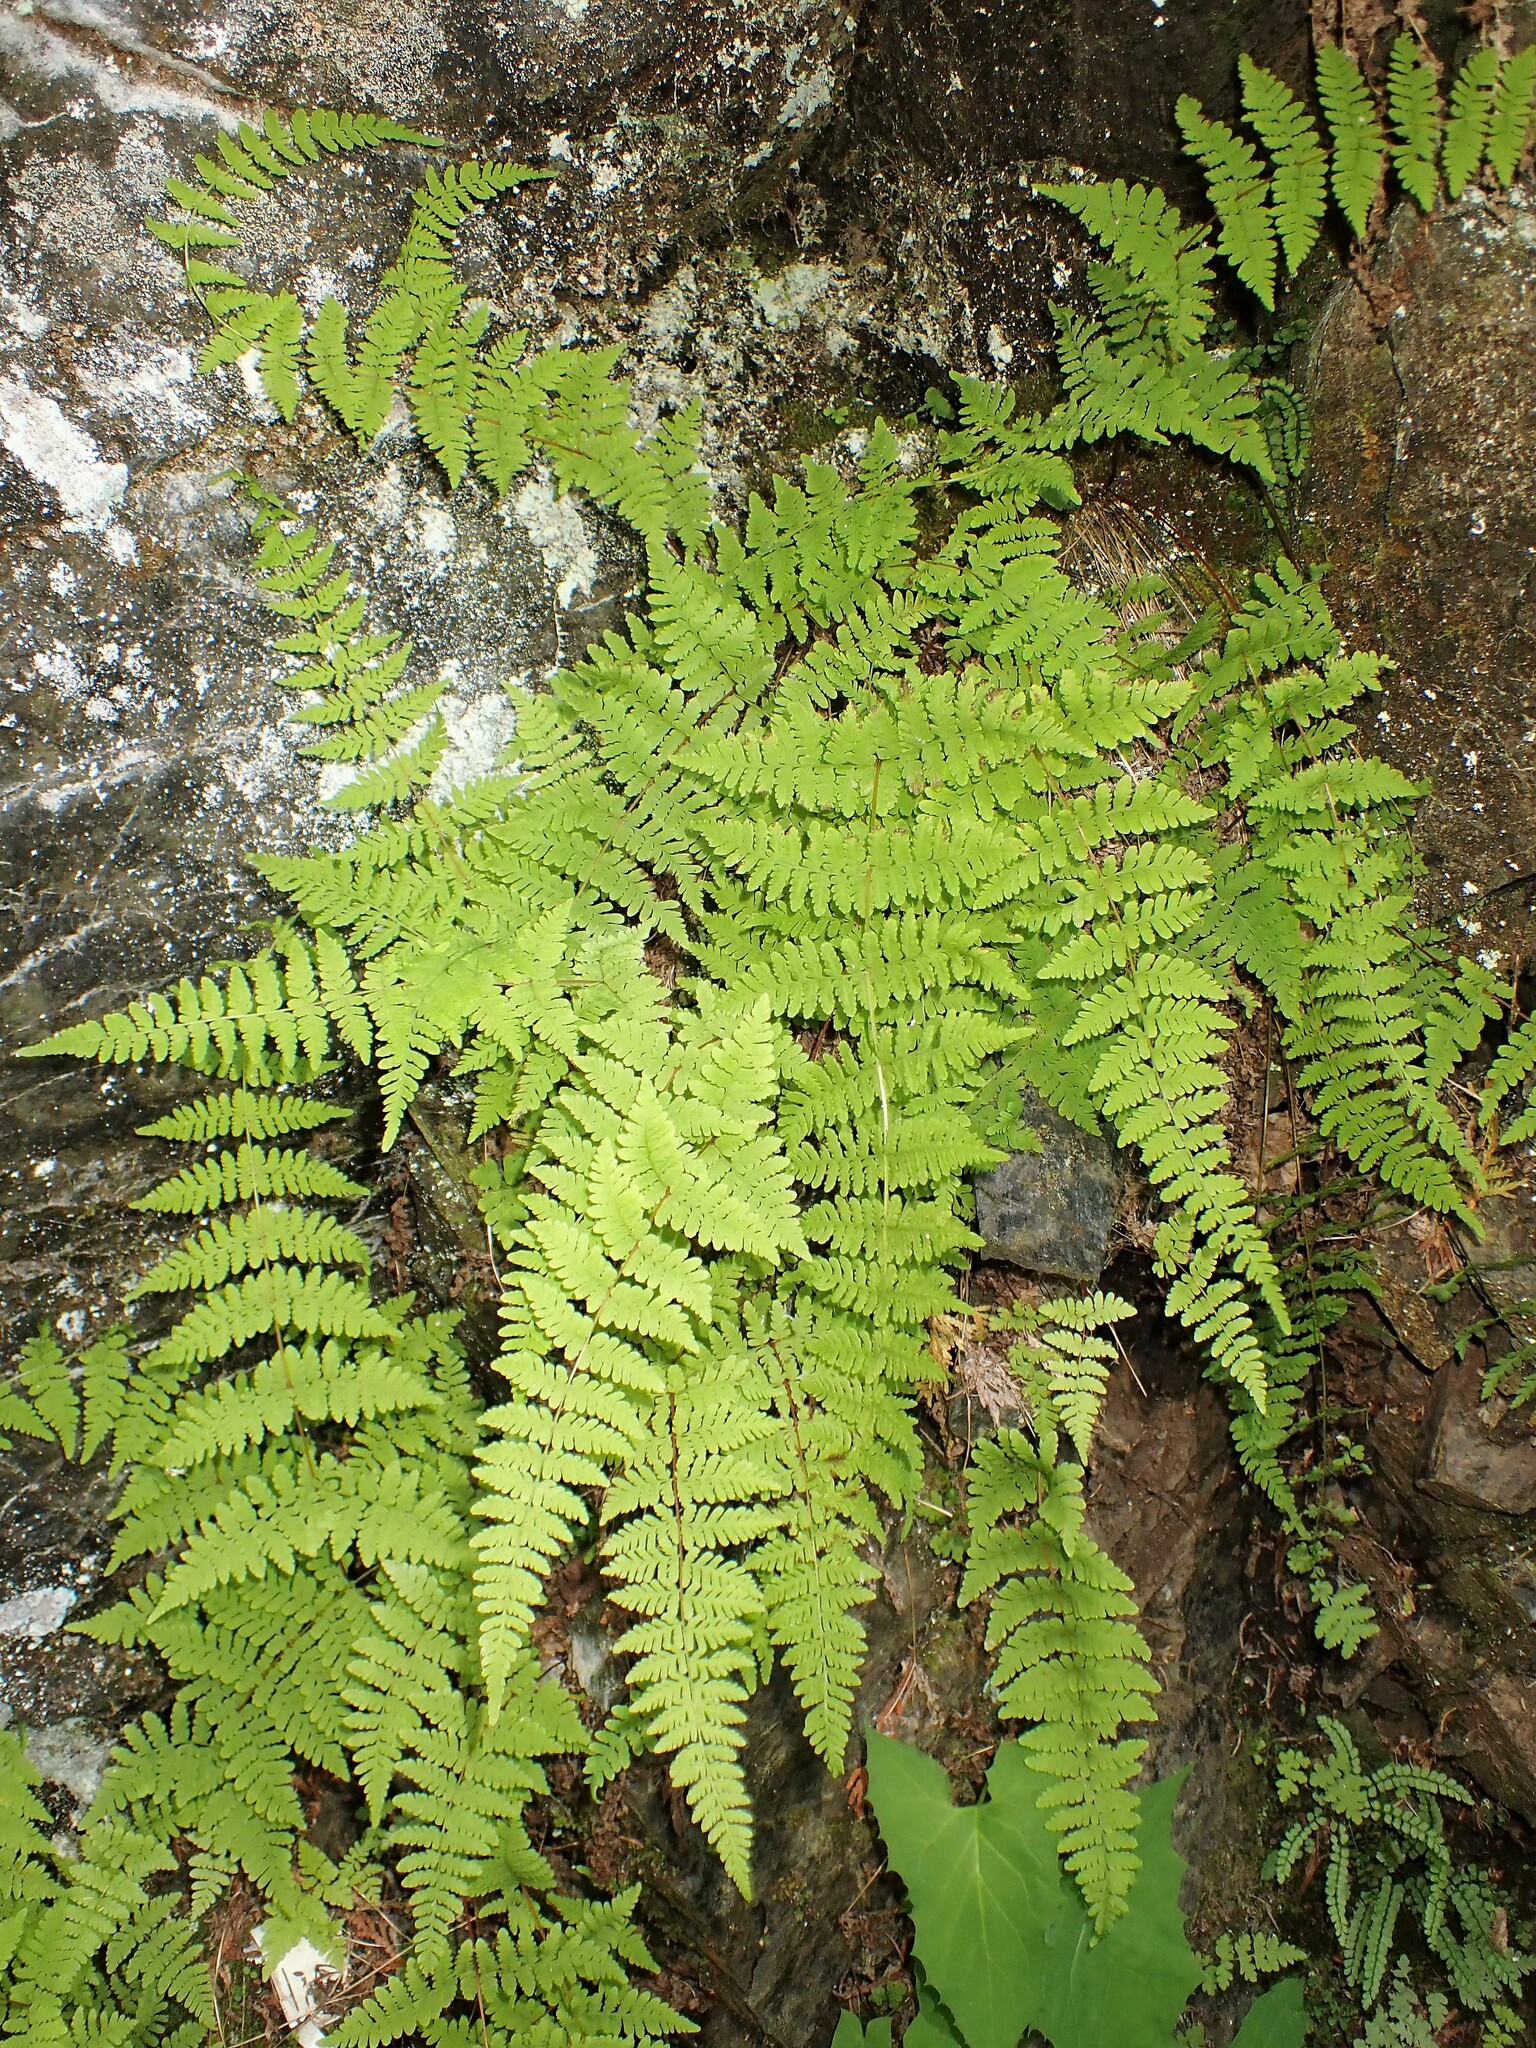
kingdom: Plantae
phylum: Tracheophyta
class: Polypodiopsida
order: Polypodiales
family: Cystopteridaceae
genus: Cystopteris
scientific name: Cystopteris bulbifera
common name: Bulblet bladder fern
